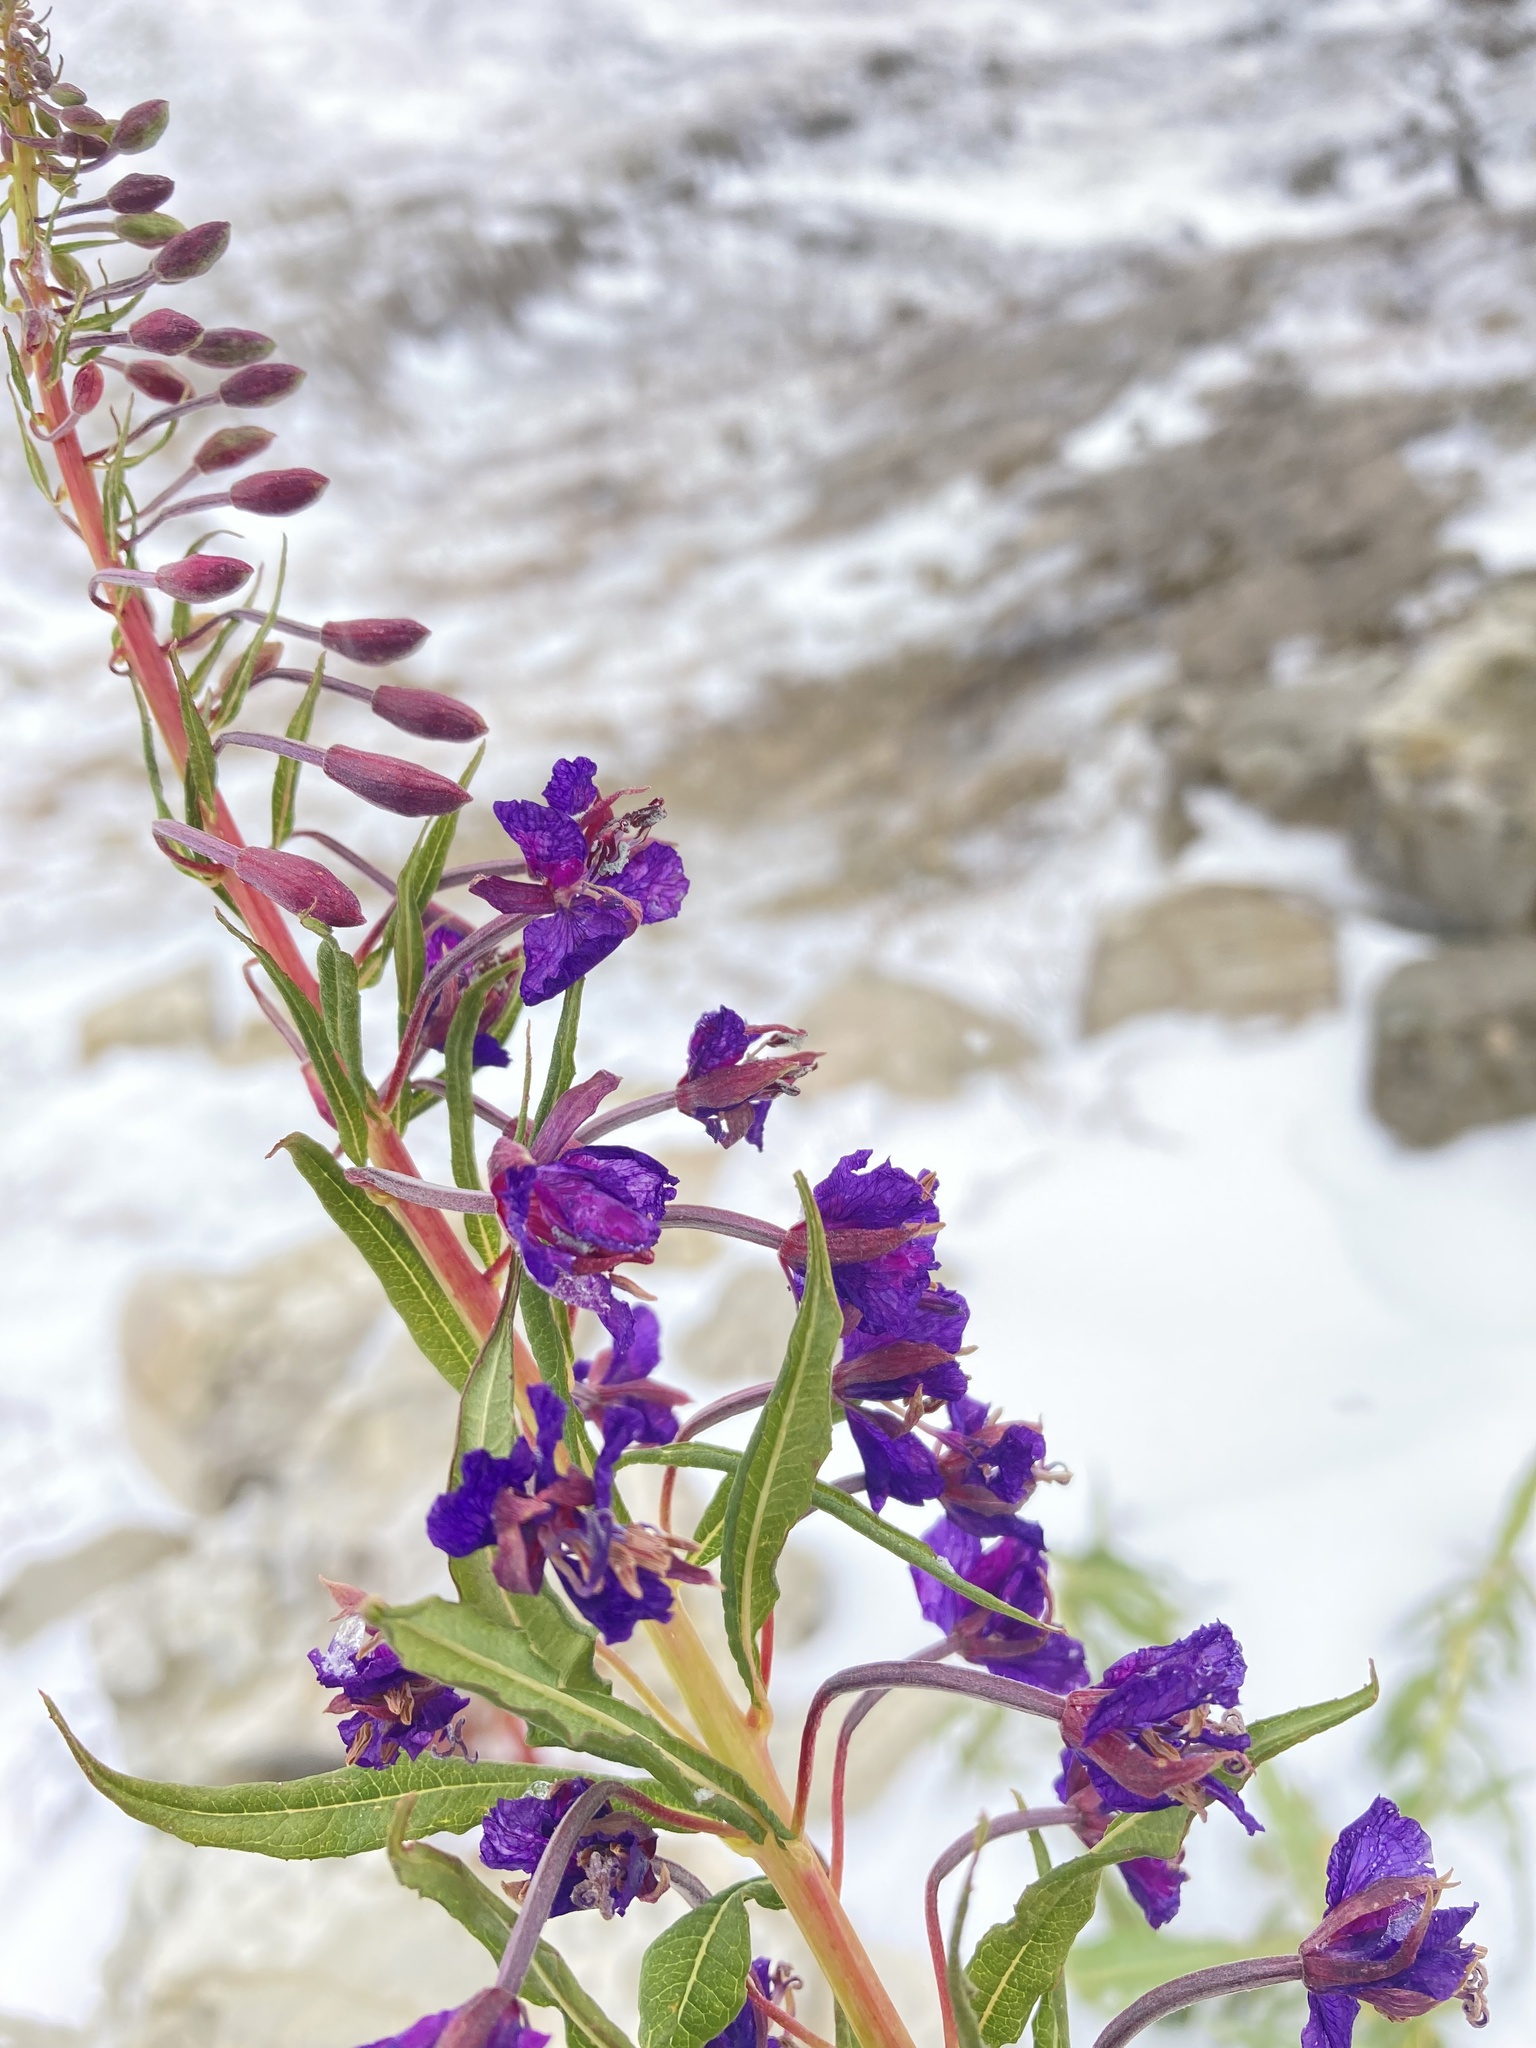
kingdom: Plantae
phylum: Tracheophyta
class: Magnoliopsida
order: Myrtales
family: Onagraceae
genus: Chamaenerion
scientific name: Chamaenerion angustifolium
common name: Fireweed
